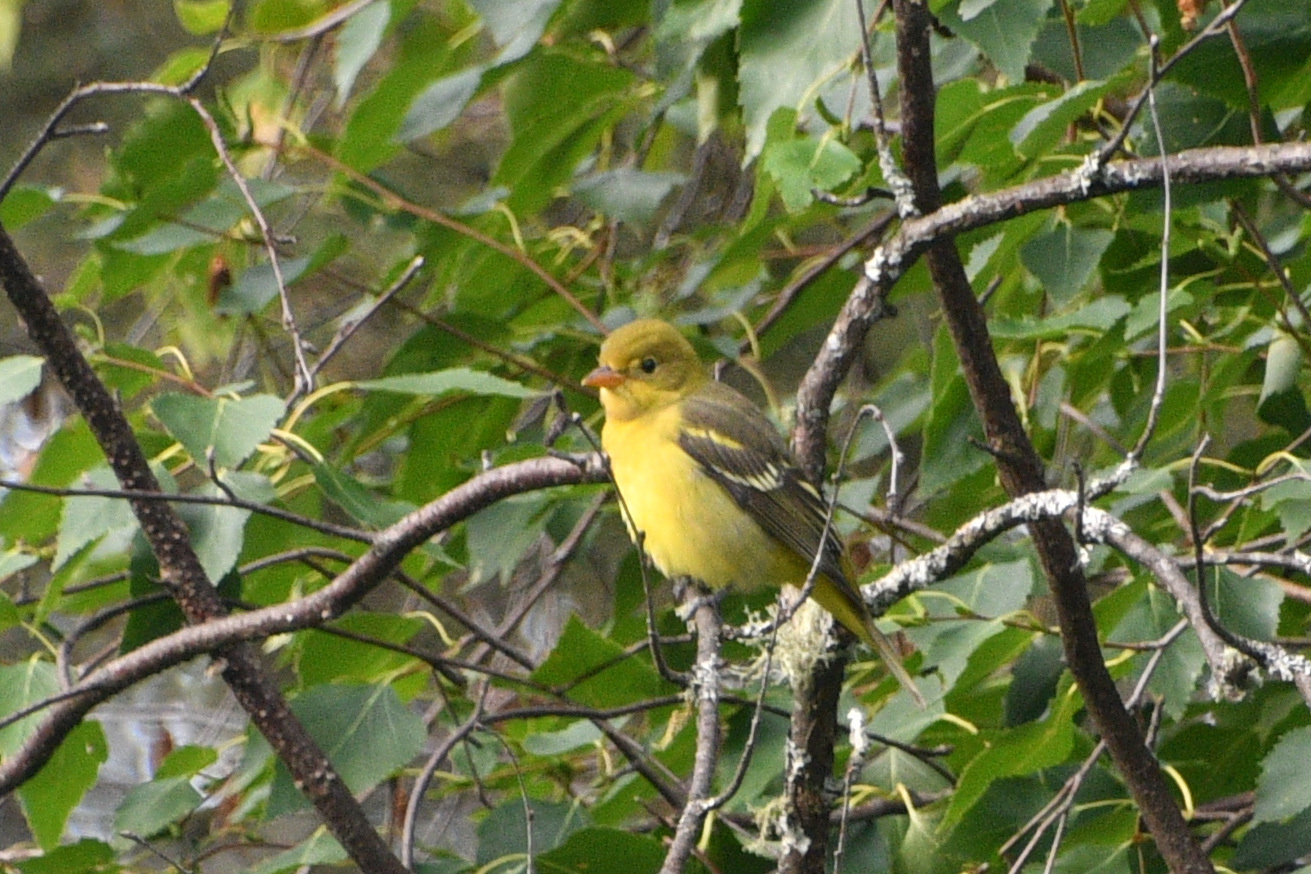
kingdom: Animalia
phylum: Chordata
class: Aves
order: Passeriformes
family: Cardinalidae
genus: Piranga
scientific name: Piranga ludoviciana
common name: Western tanager
